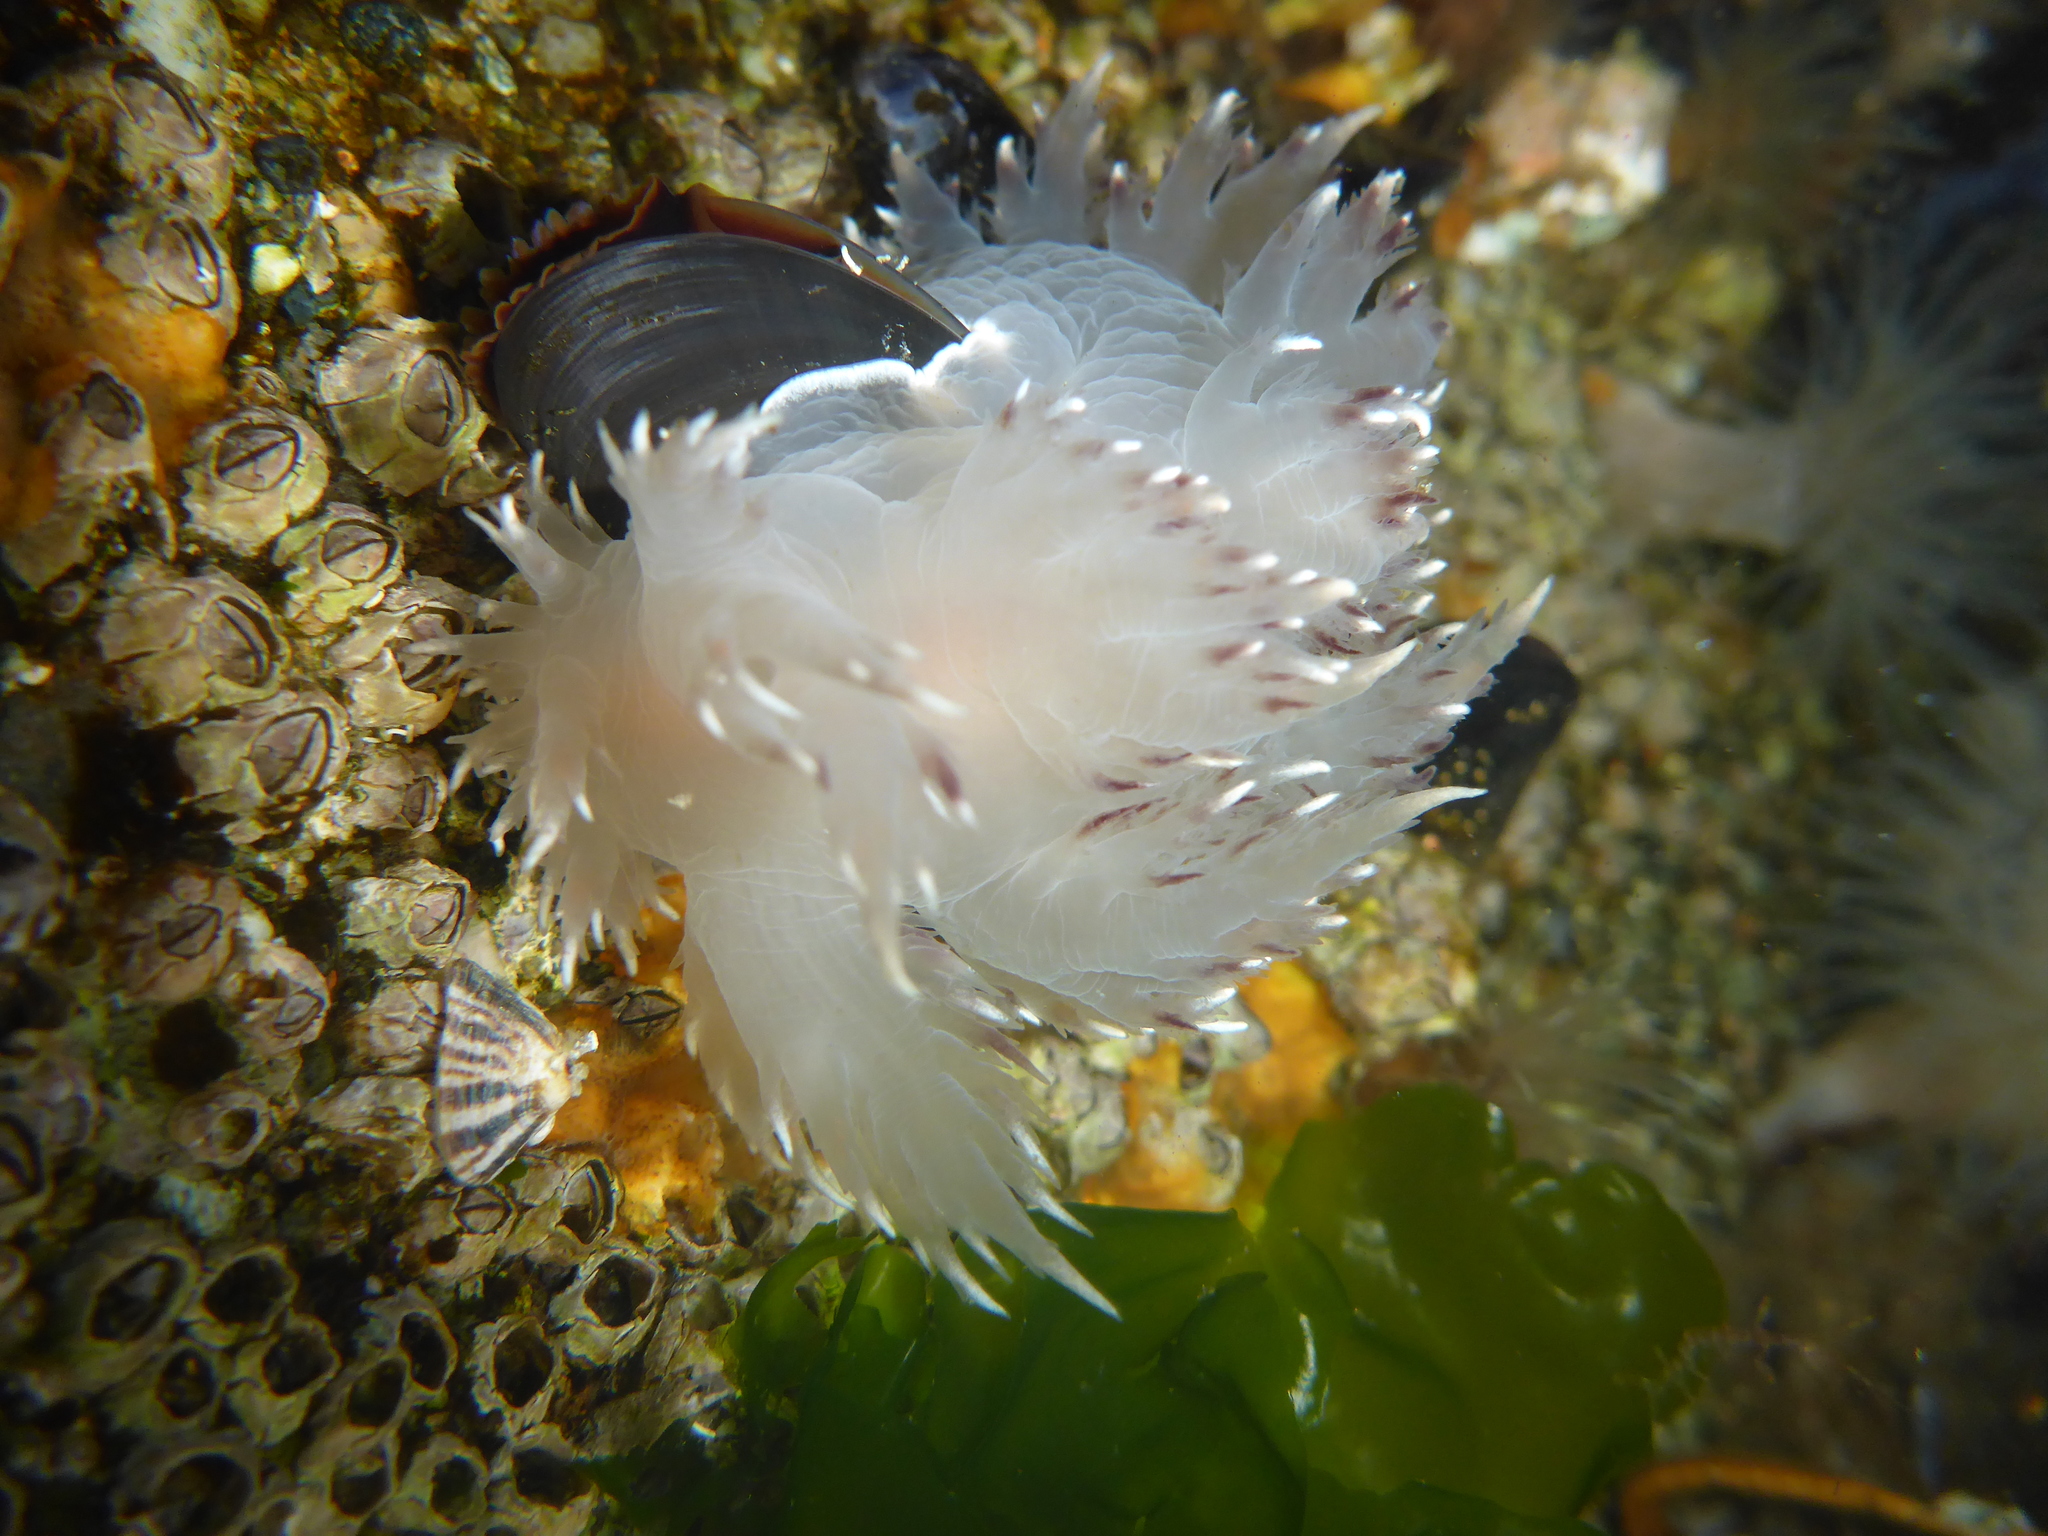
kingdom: Animalia
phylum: Mollusca
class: Gastropoda
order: Nudibranchia
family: Dendronotidae
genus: Dendronotus
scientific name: Dendronotus iris
